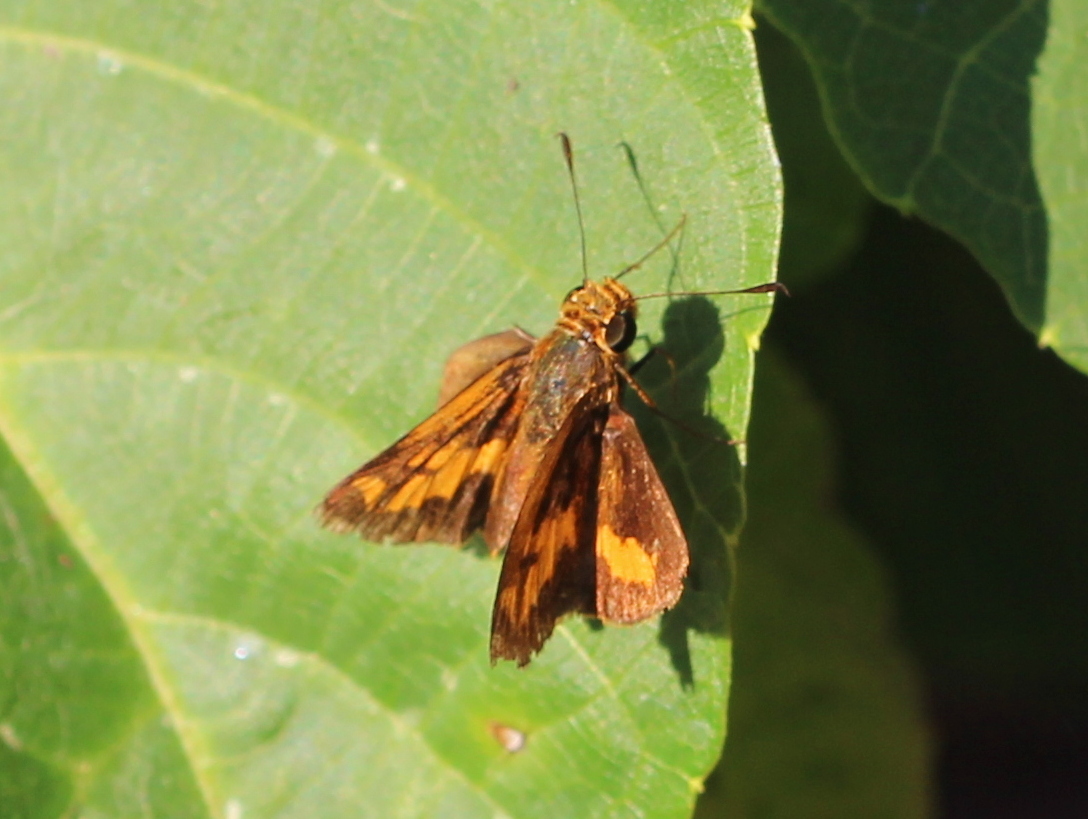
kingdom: Animalia
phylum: Arthropoda
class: Insecta
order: Lepidoptera
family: Hesperiidae
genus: Oriens
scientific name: Oriens goloides
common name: Smaller dartlet
